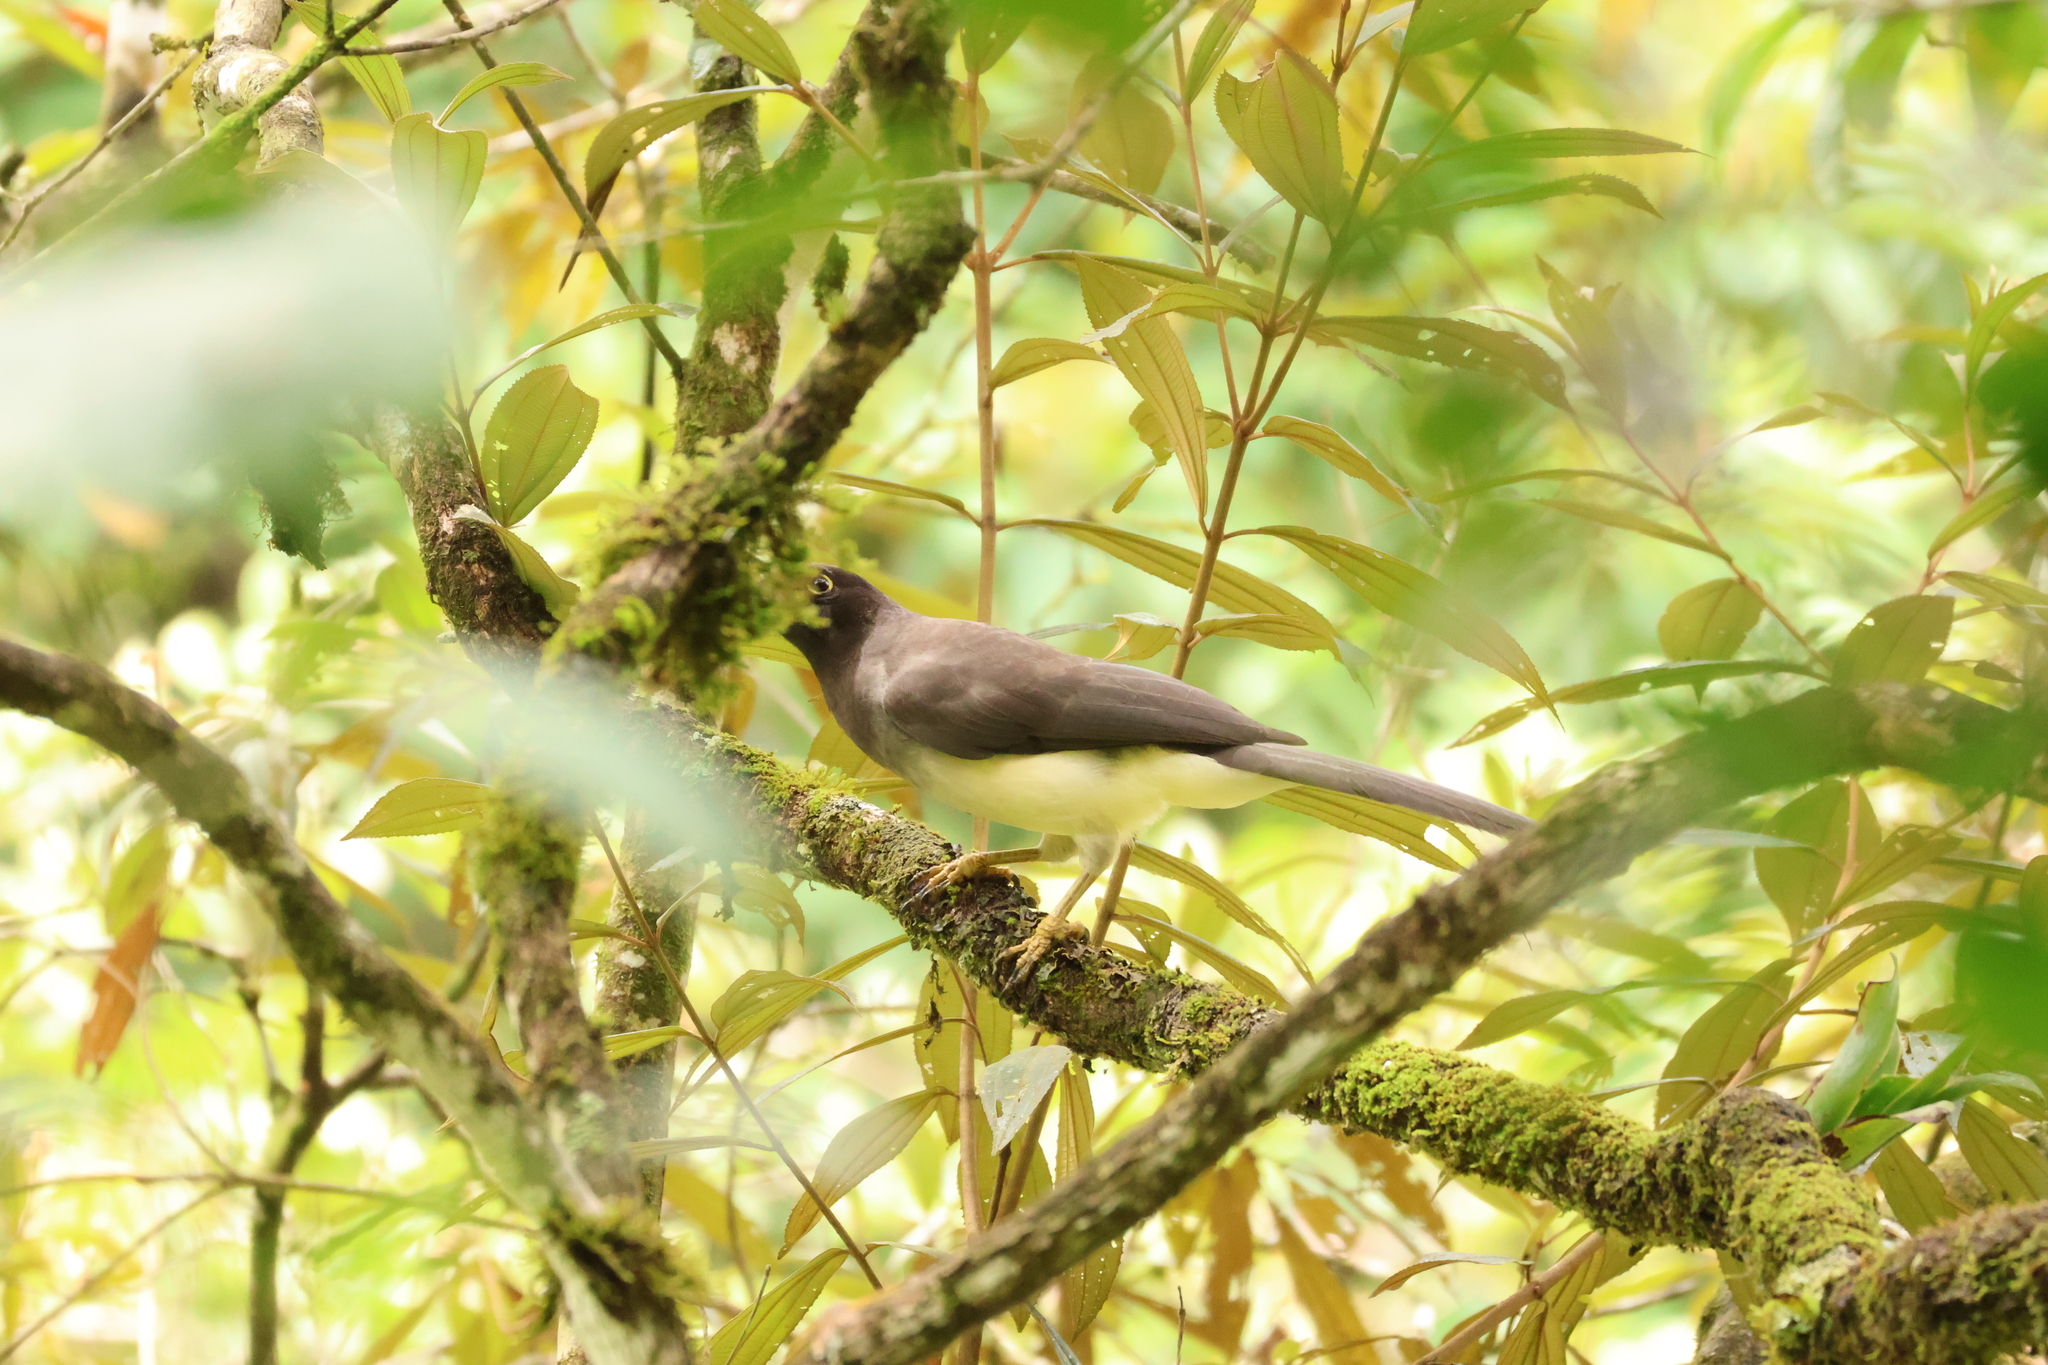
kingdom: Animalia
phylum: Chordata
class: Aves
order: Passeriformes
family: Corvidae
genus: Psilorhinus
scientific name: Psilorhinus morio
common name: Brown jay
